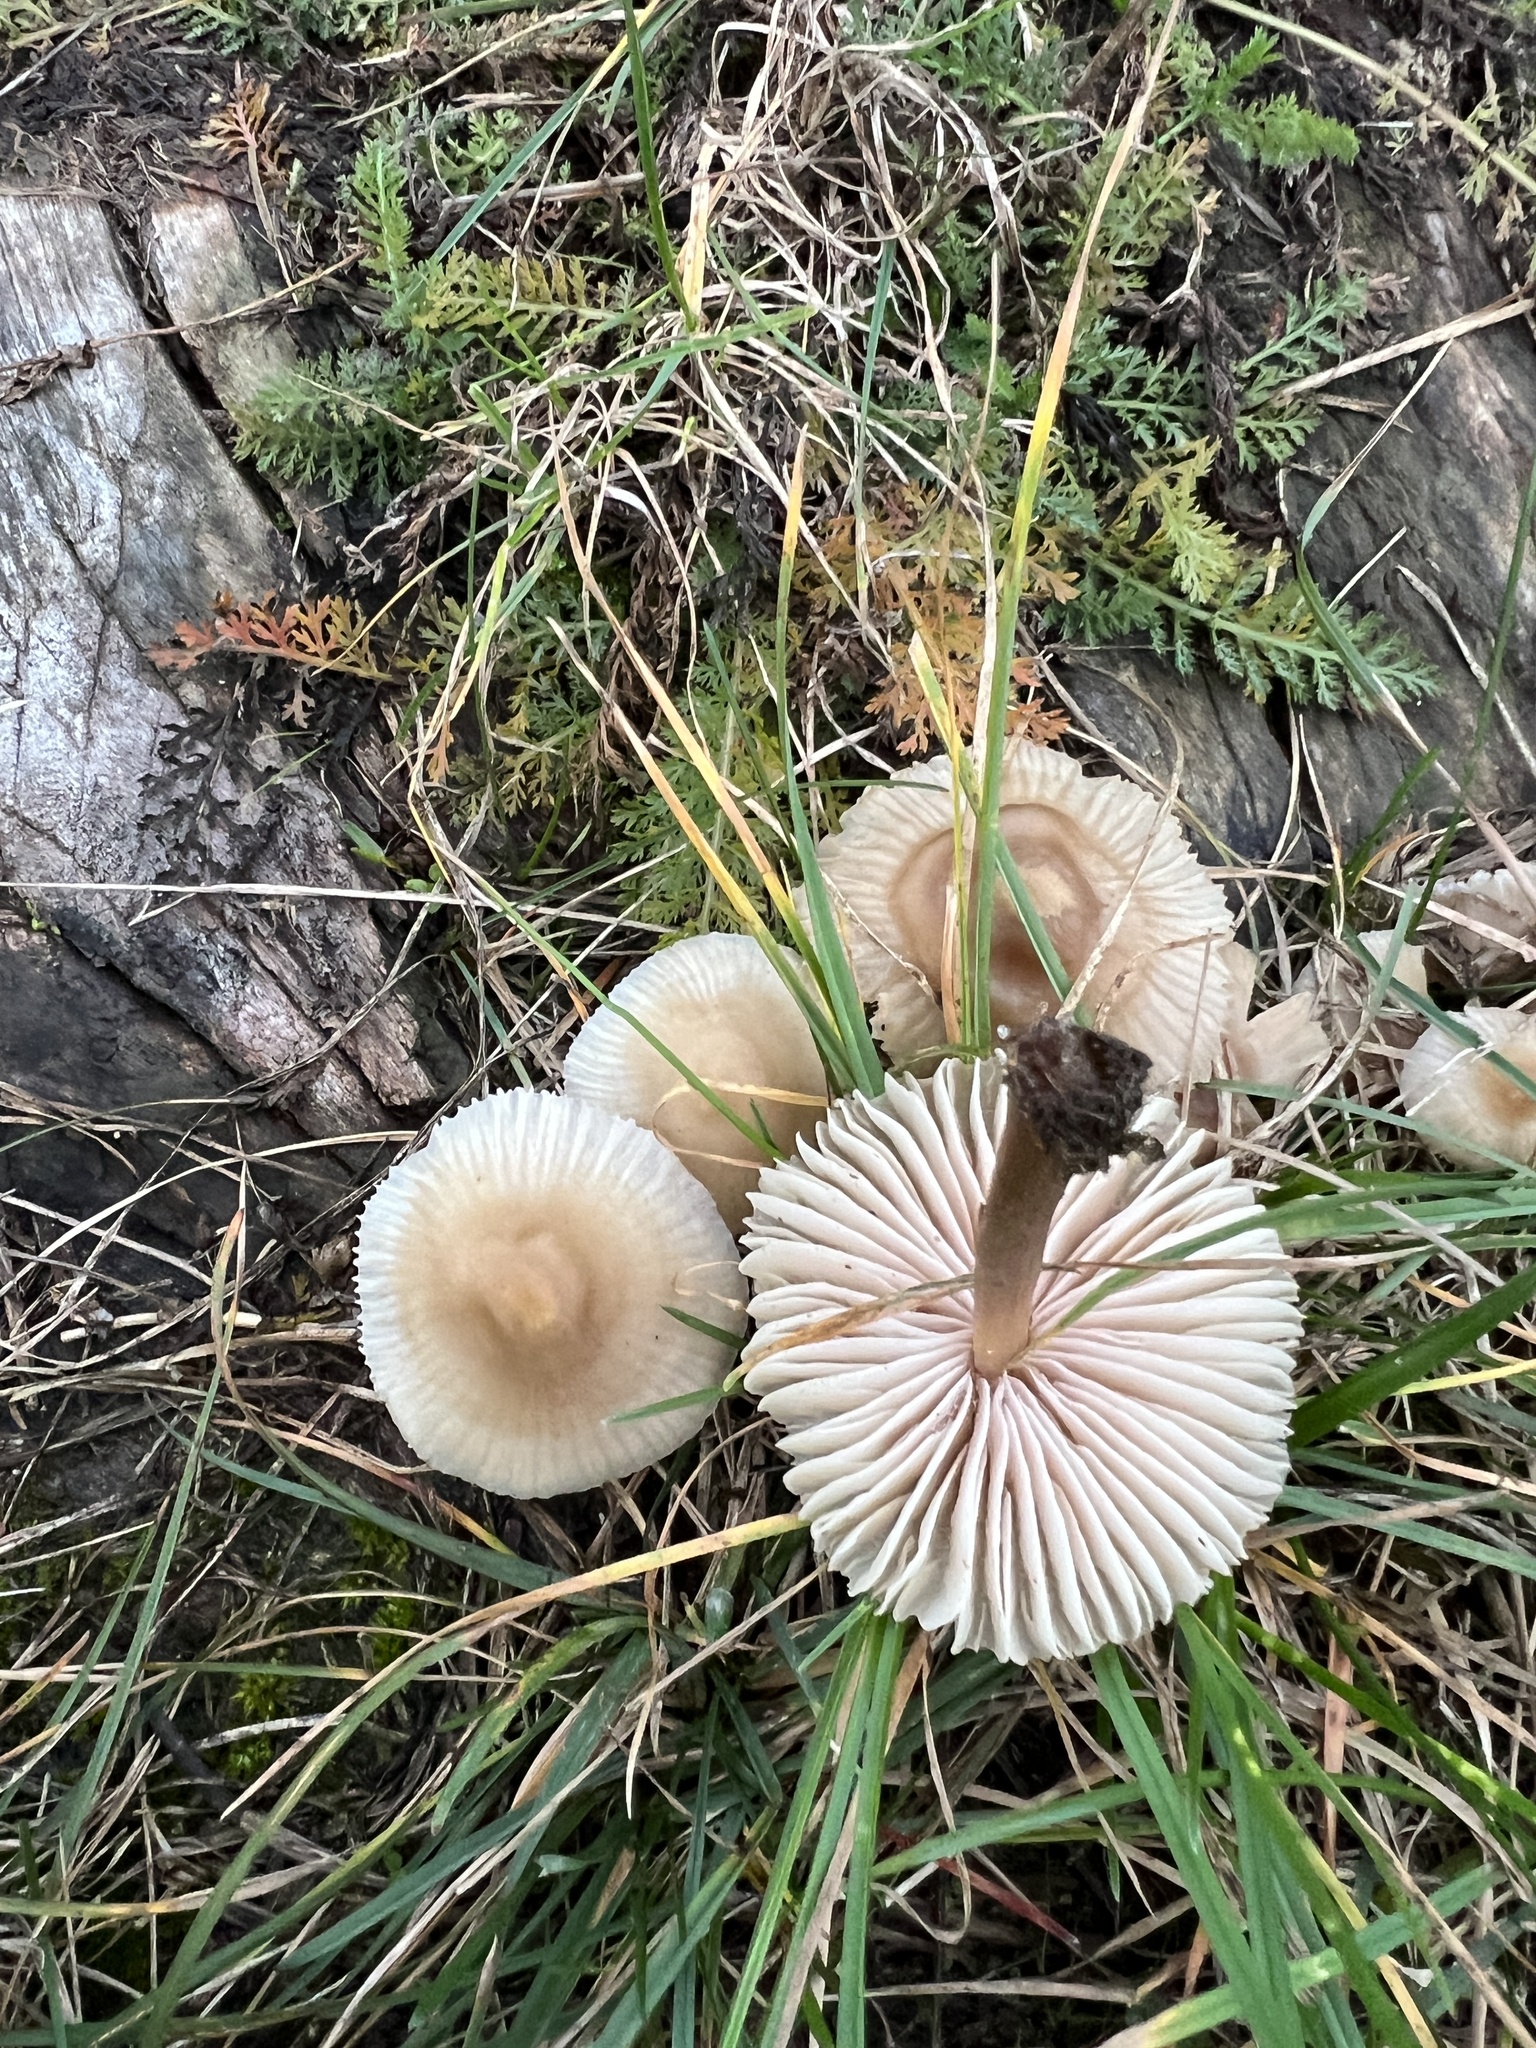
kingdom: Fungi
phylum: Basidiomycota
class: Agaricomycetes
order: Agaricales
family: Marasmiaceae
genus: Marasmius
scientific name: Marasmius oreades
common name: Fairy ring champignon
